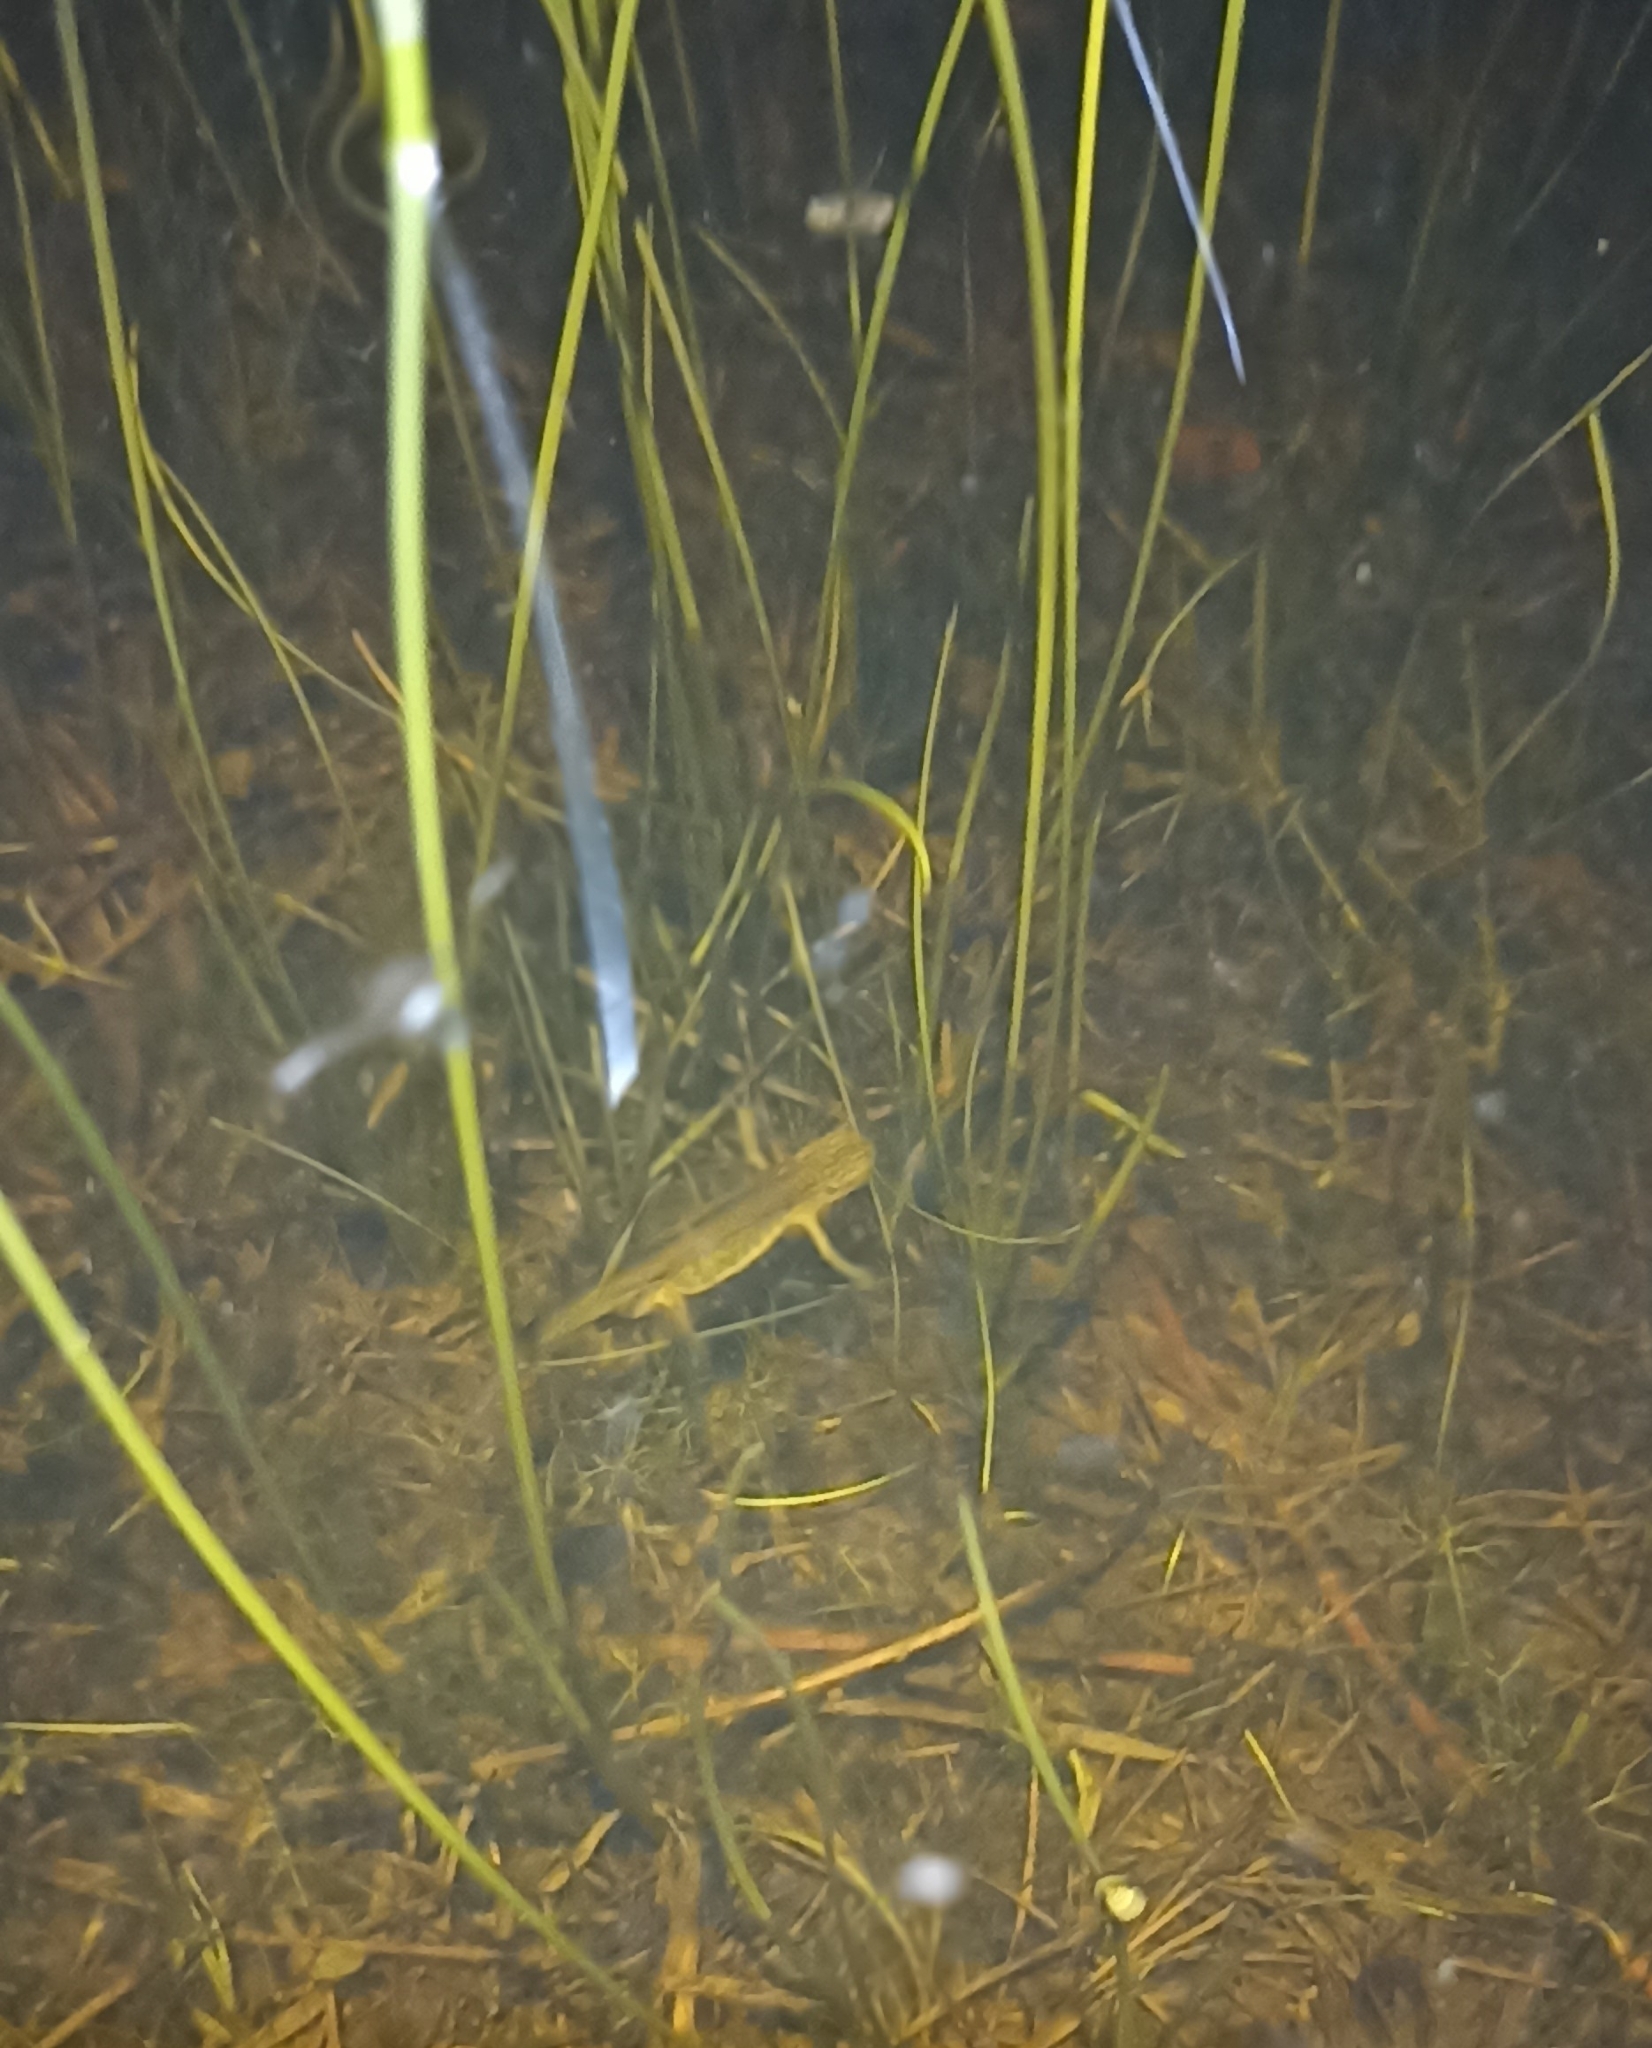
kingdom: Animalia
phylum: Chordata
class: Amphibia
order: Caudata
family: Salamandridae
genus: Lissotriton
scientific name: Lissotriton helveticus
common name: Palmate newt
